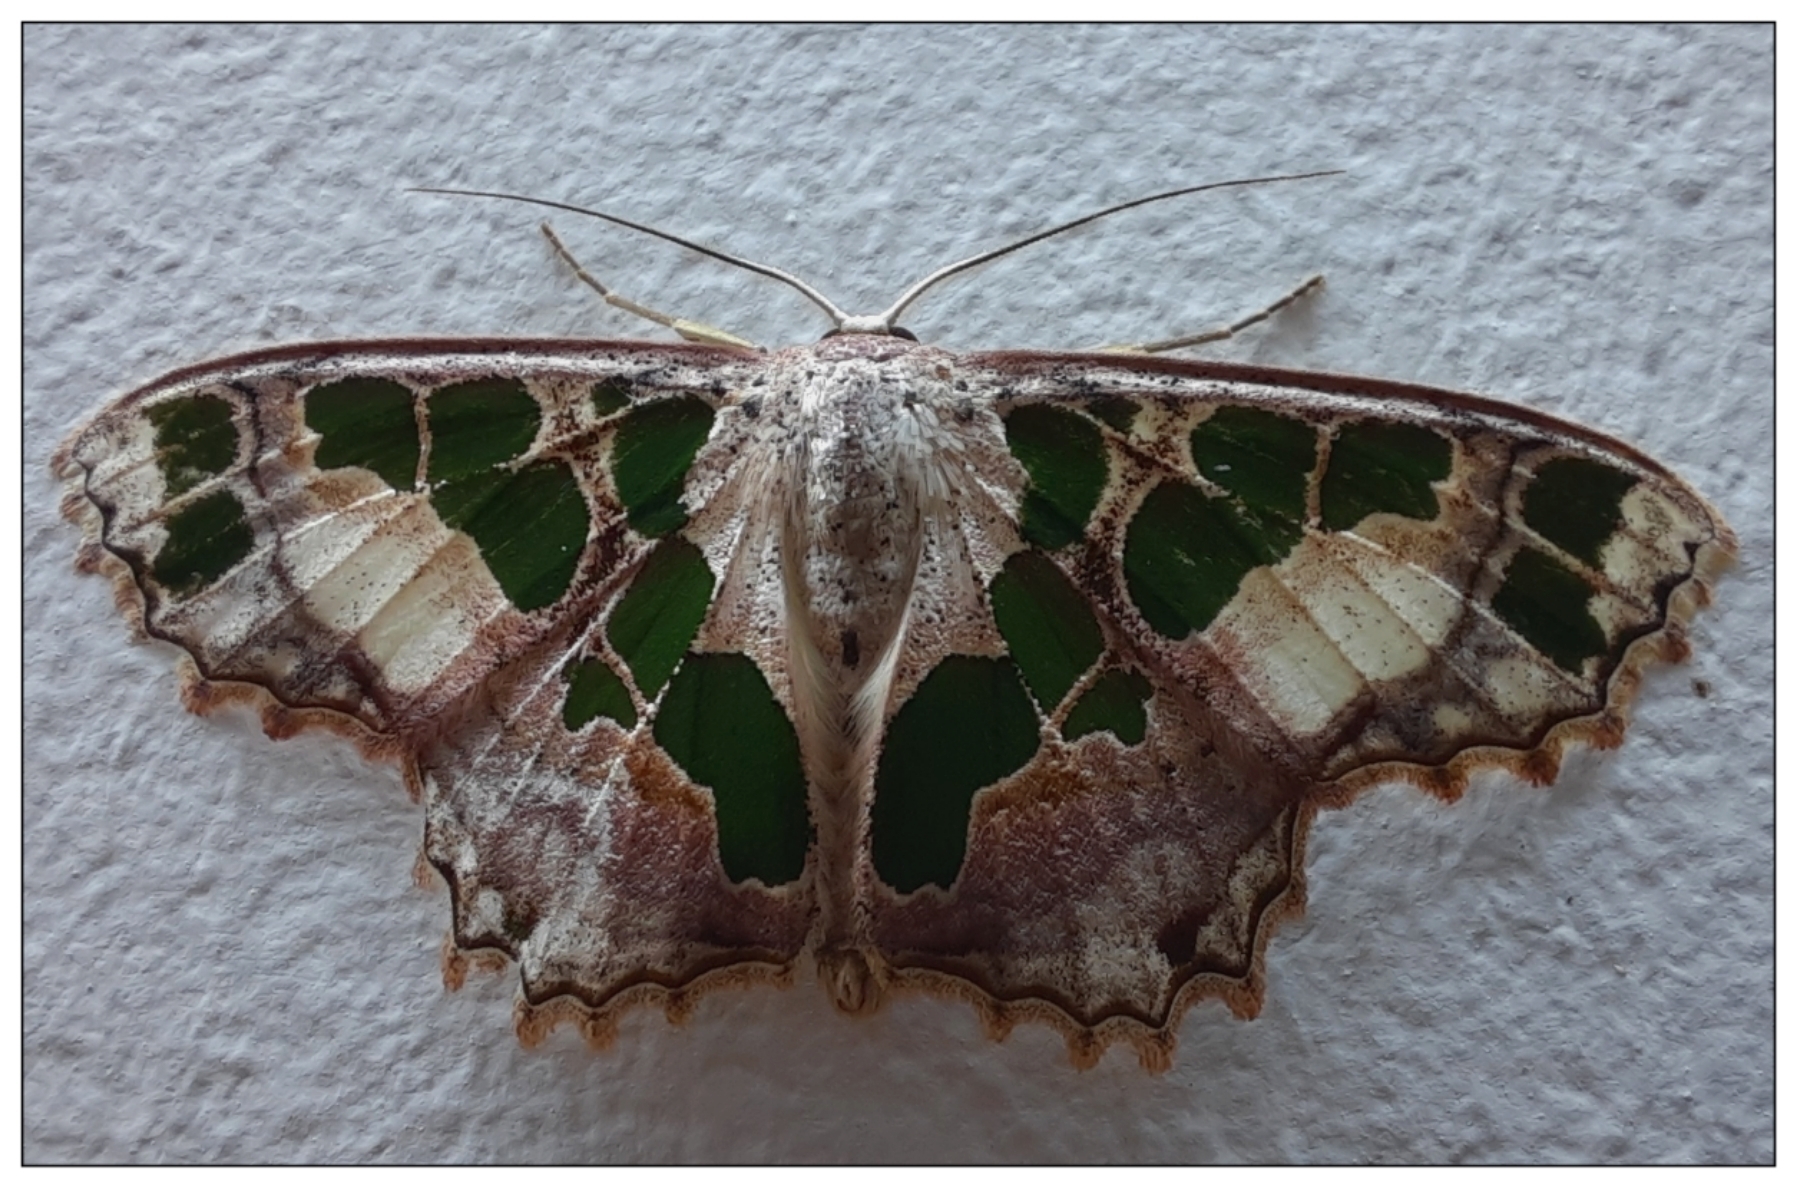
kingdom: Animalia
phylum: Arthropoda
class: Insecta
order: Lepidoptera
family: Geometridae
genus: Scopula
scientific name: Scopula divisaria
